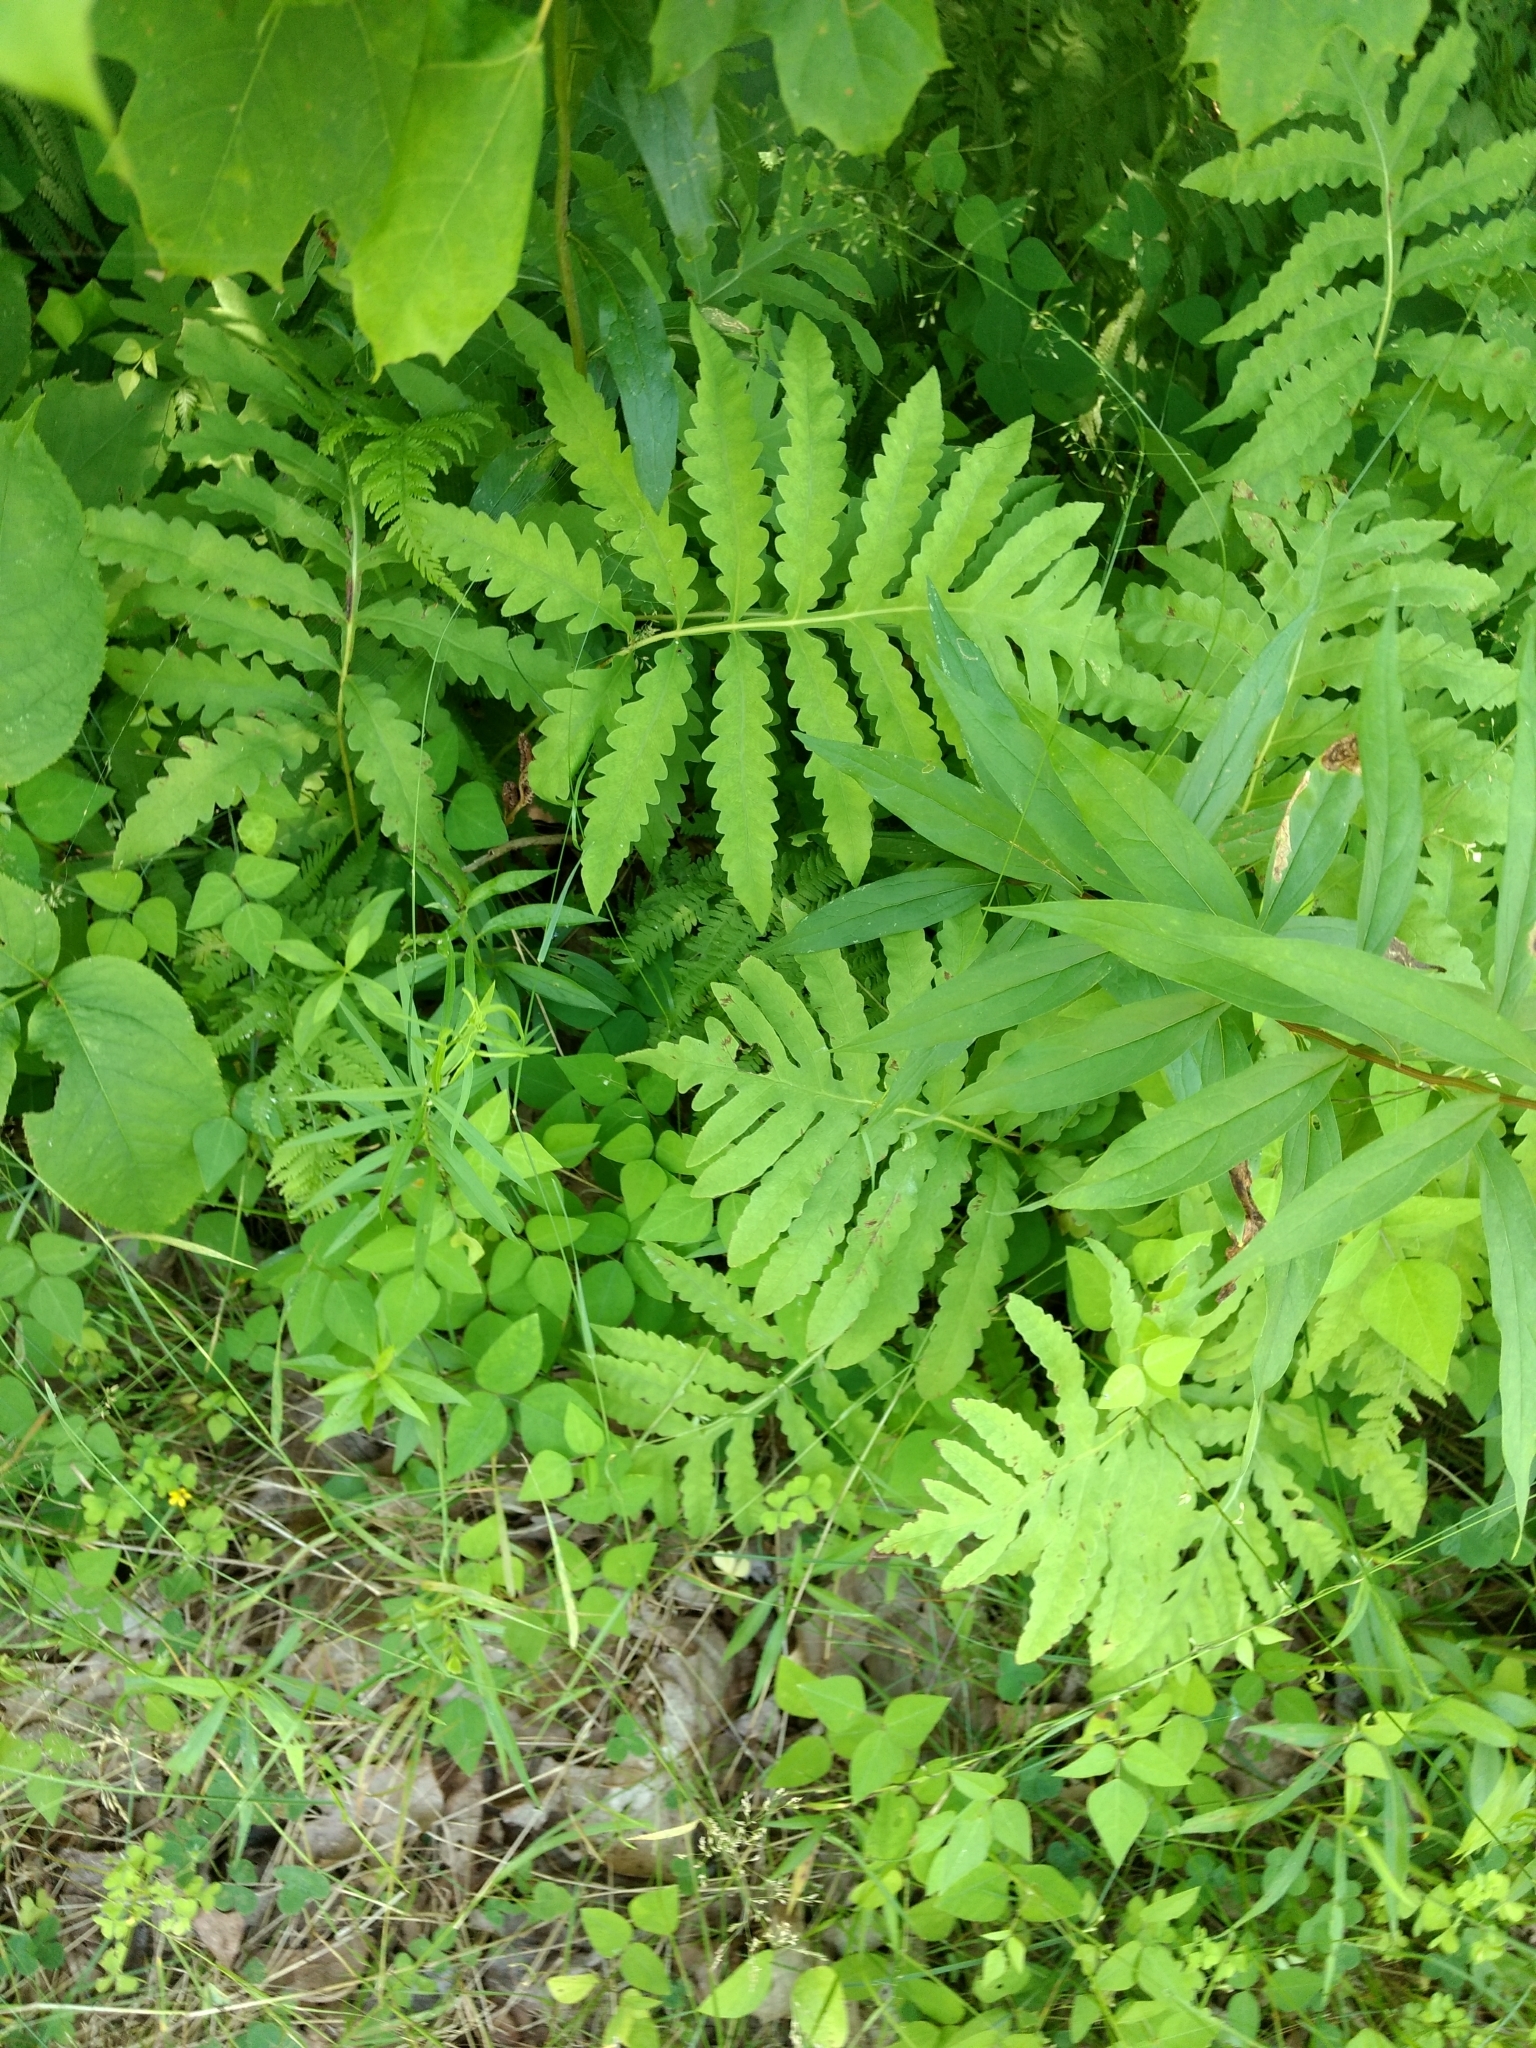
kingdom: Plantae
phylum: Tracheophyta
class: Polypodiopsida
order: Polypodiales
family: Onocleaceae
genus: Onoclea
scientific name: Onoclea sensibilis
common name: Sensitive fern
